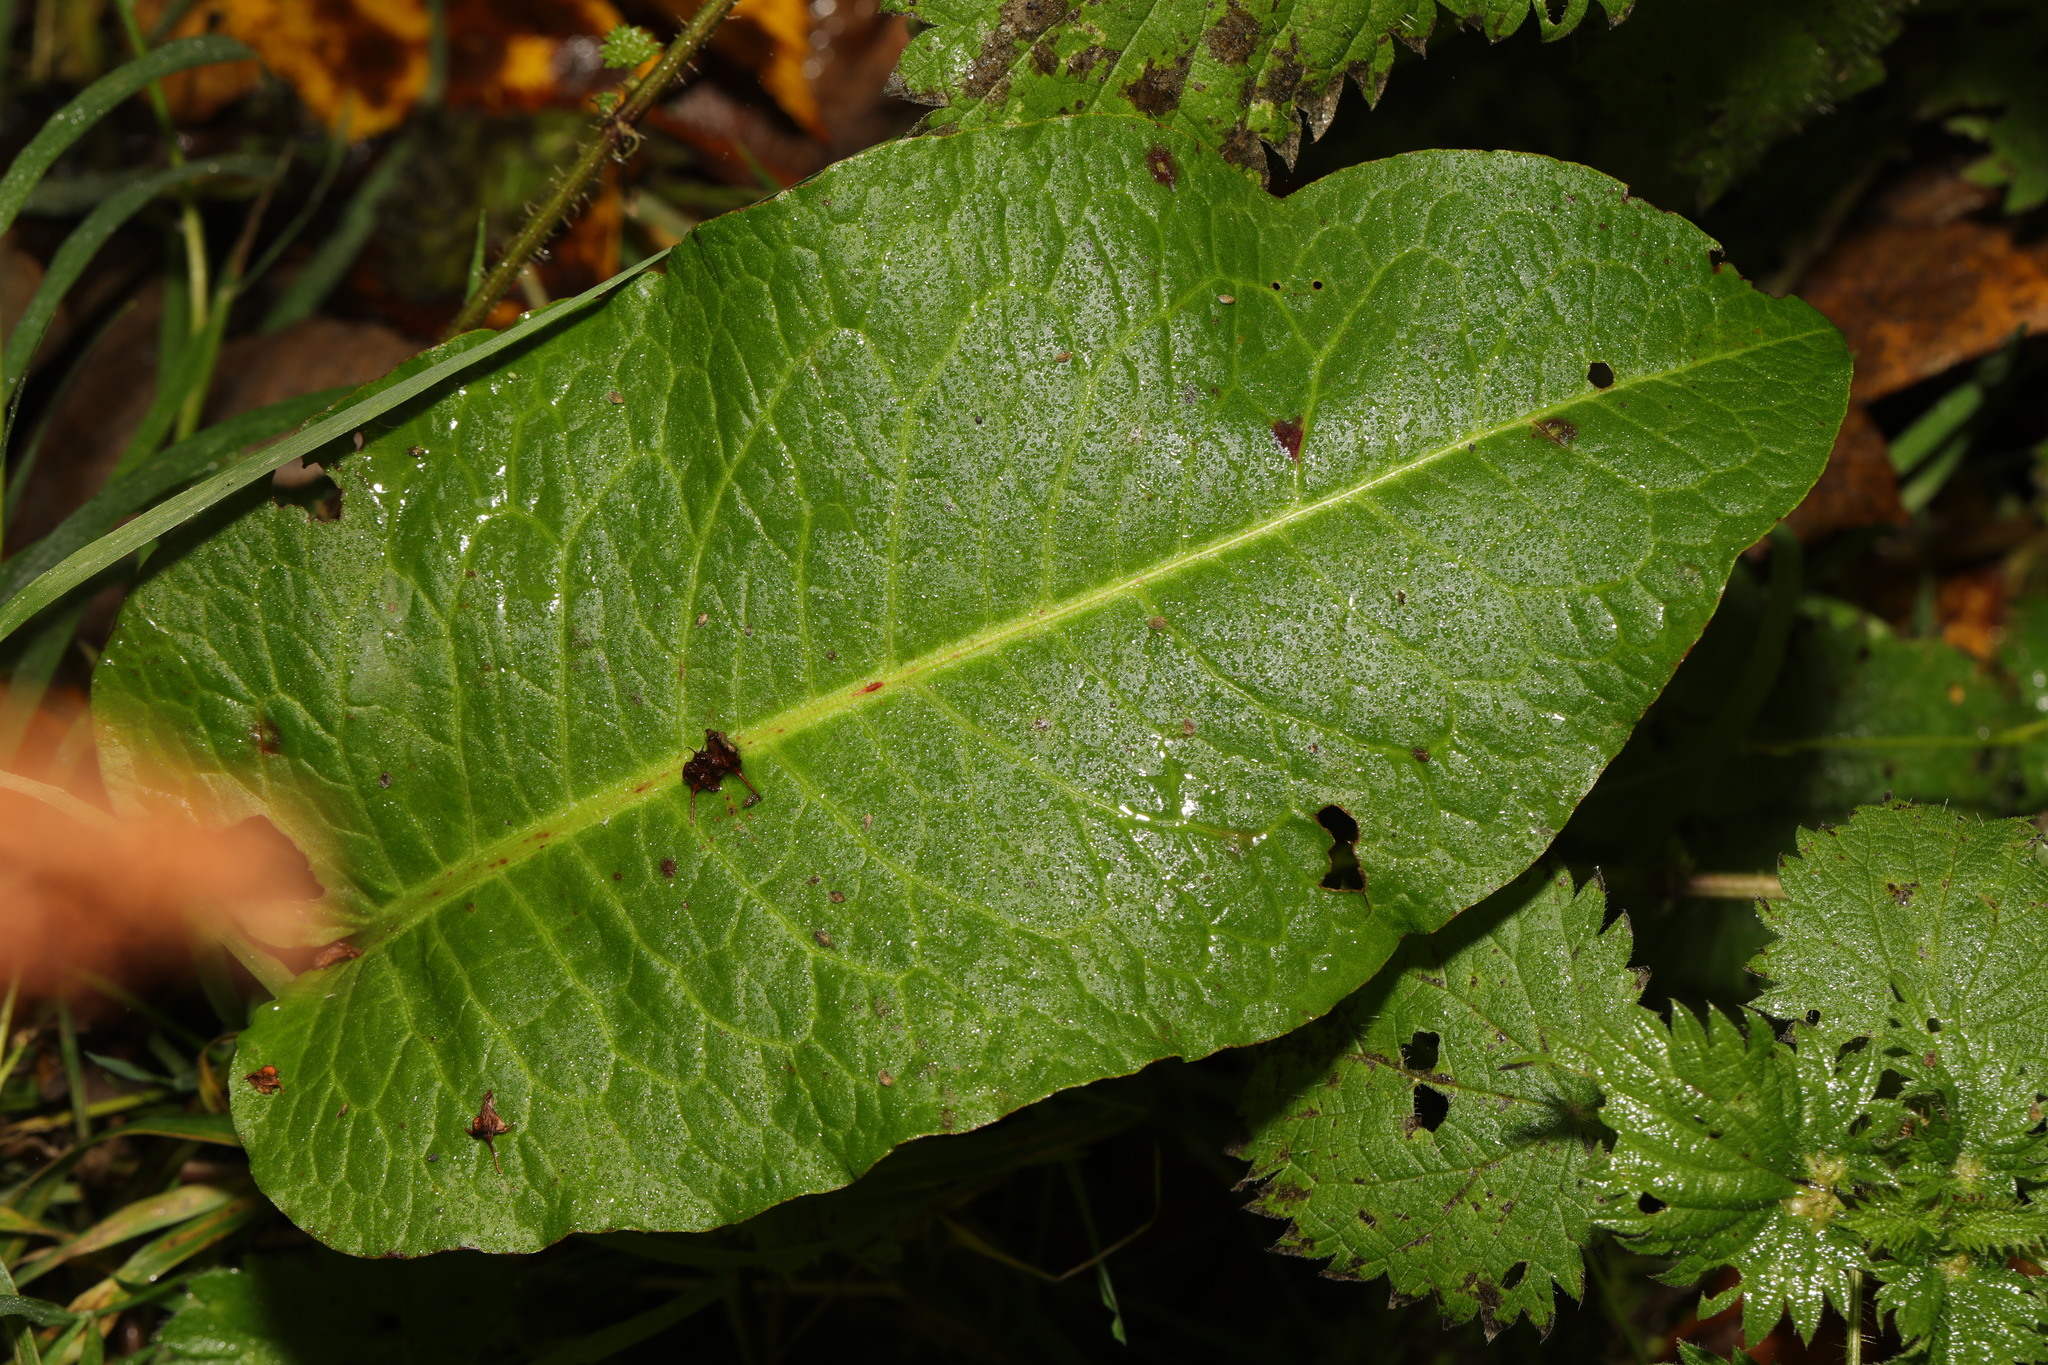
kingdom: Plantae
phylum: Tracheophyta
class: Magnoliopsida
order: Caryophyllales
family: Polygonaceae
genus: Rumex
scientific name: Rumex obtusifolius
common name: Bitter dock
